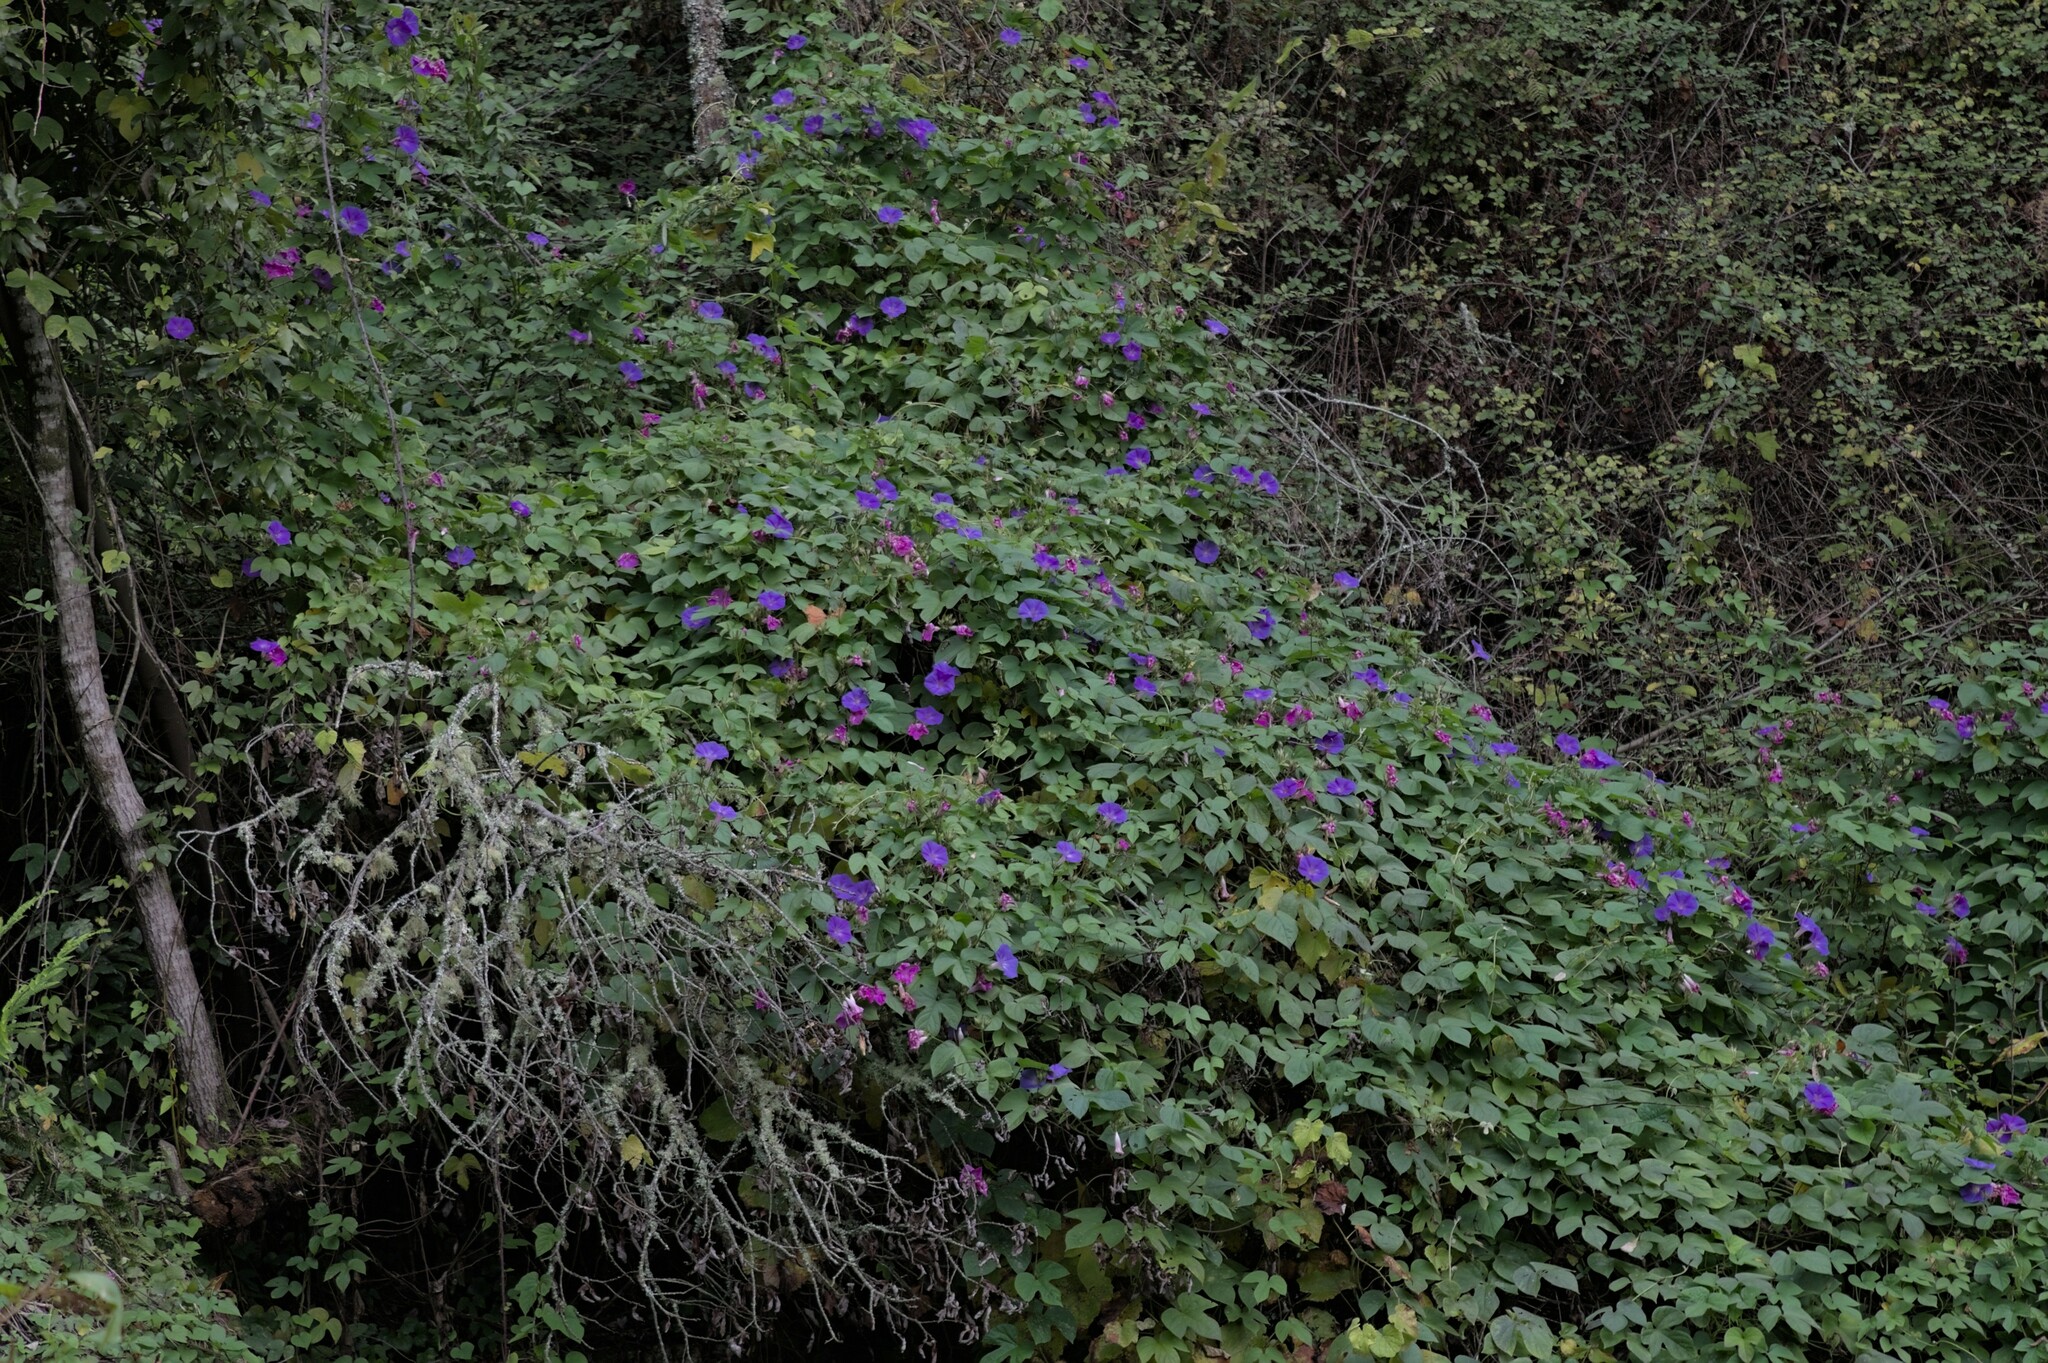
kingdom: Plantae
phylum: Tracheophyta
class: Magnoliopsida
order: Solanales
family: Convolvulaceae
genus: Ipomoea
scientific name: Ipomoea indica
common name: Blue dawnflower
